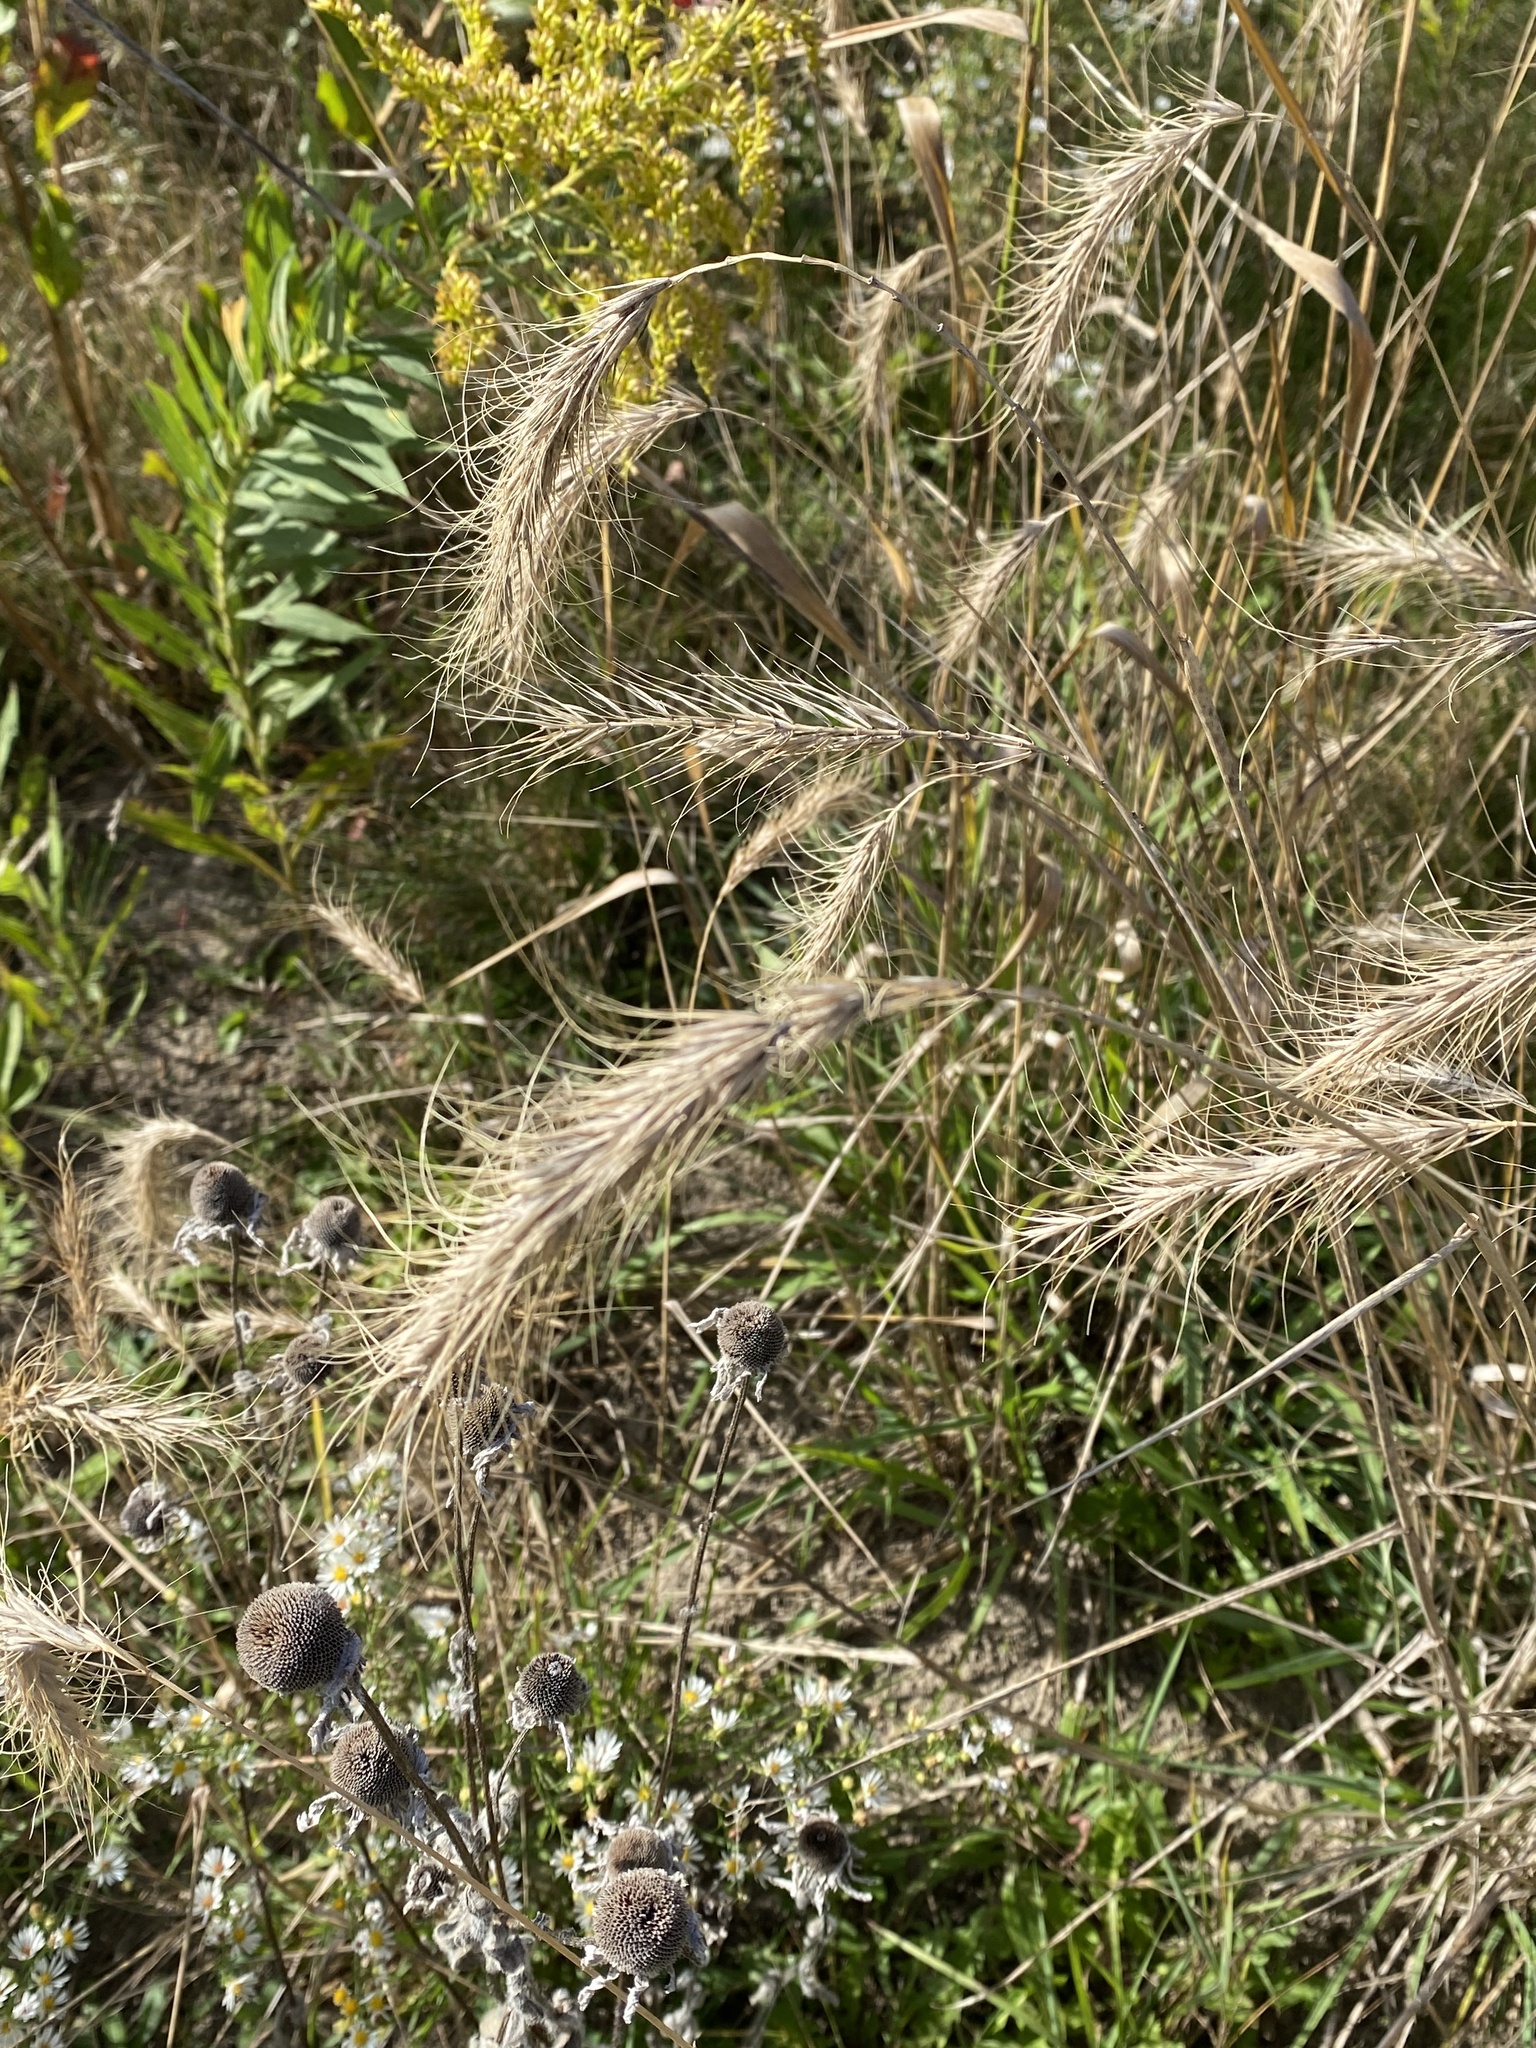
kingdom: Plantae
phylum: Tracheophyta
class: Liliopsida
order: Poales
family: Poaceae
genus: Elymus
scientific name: Elymus canadensis
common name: Canada wild rye
